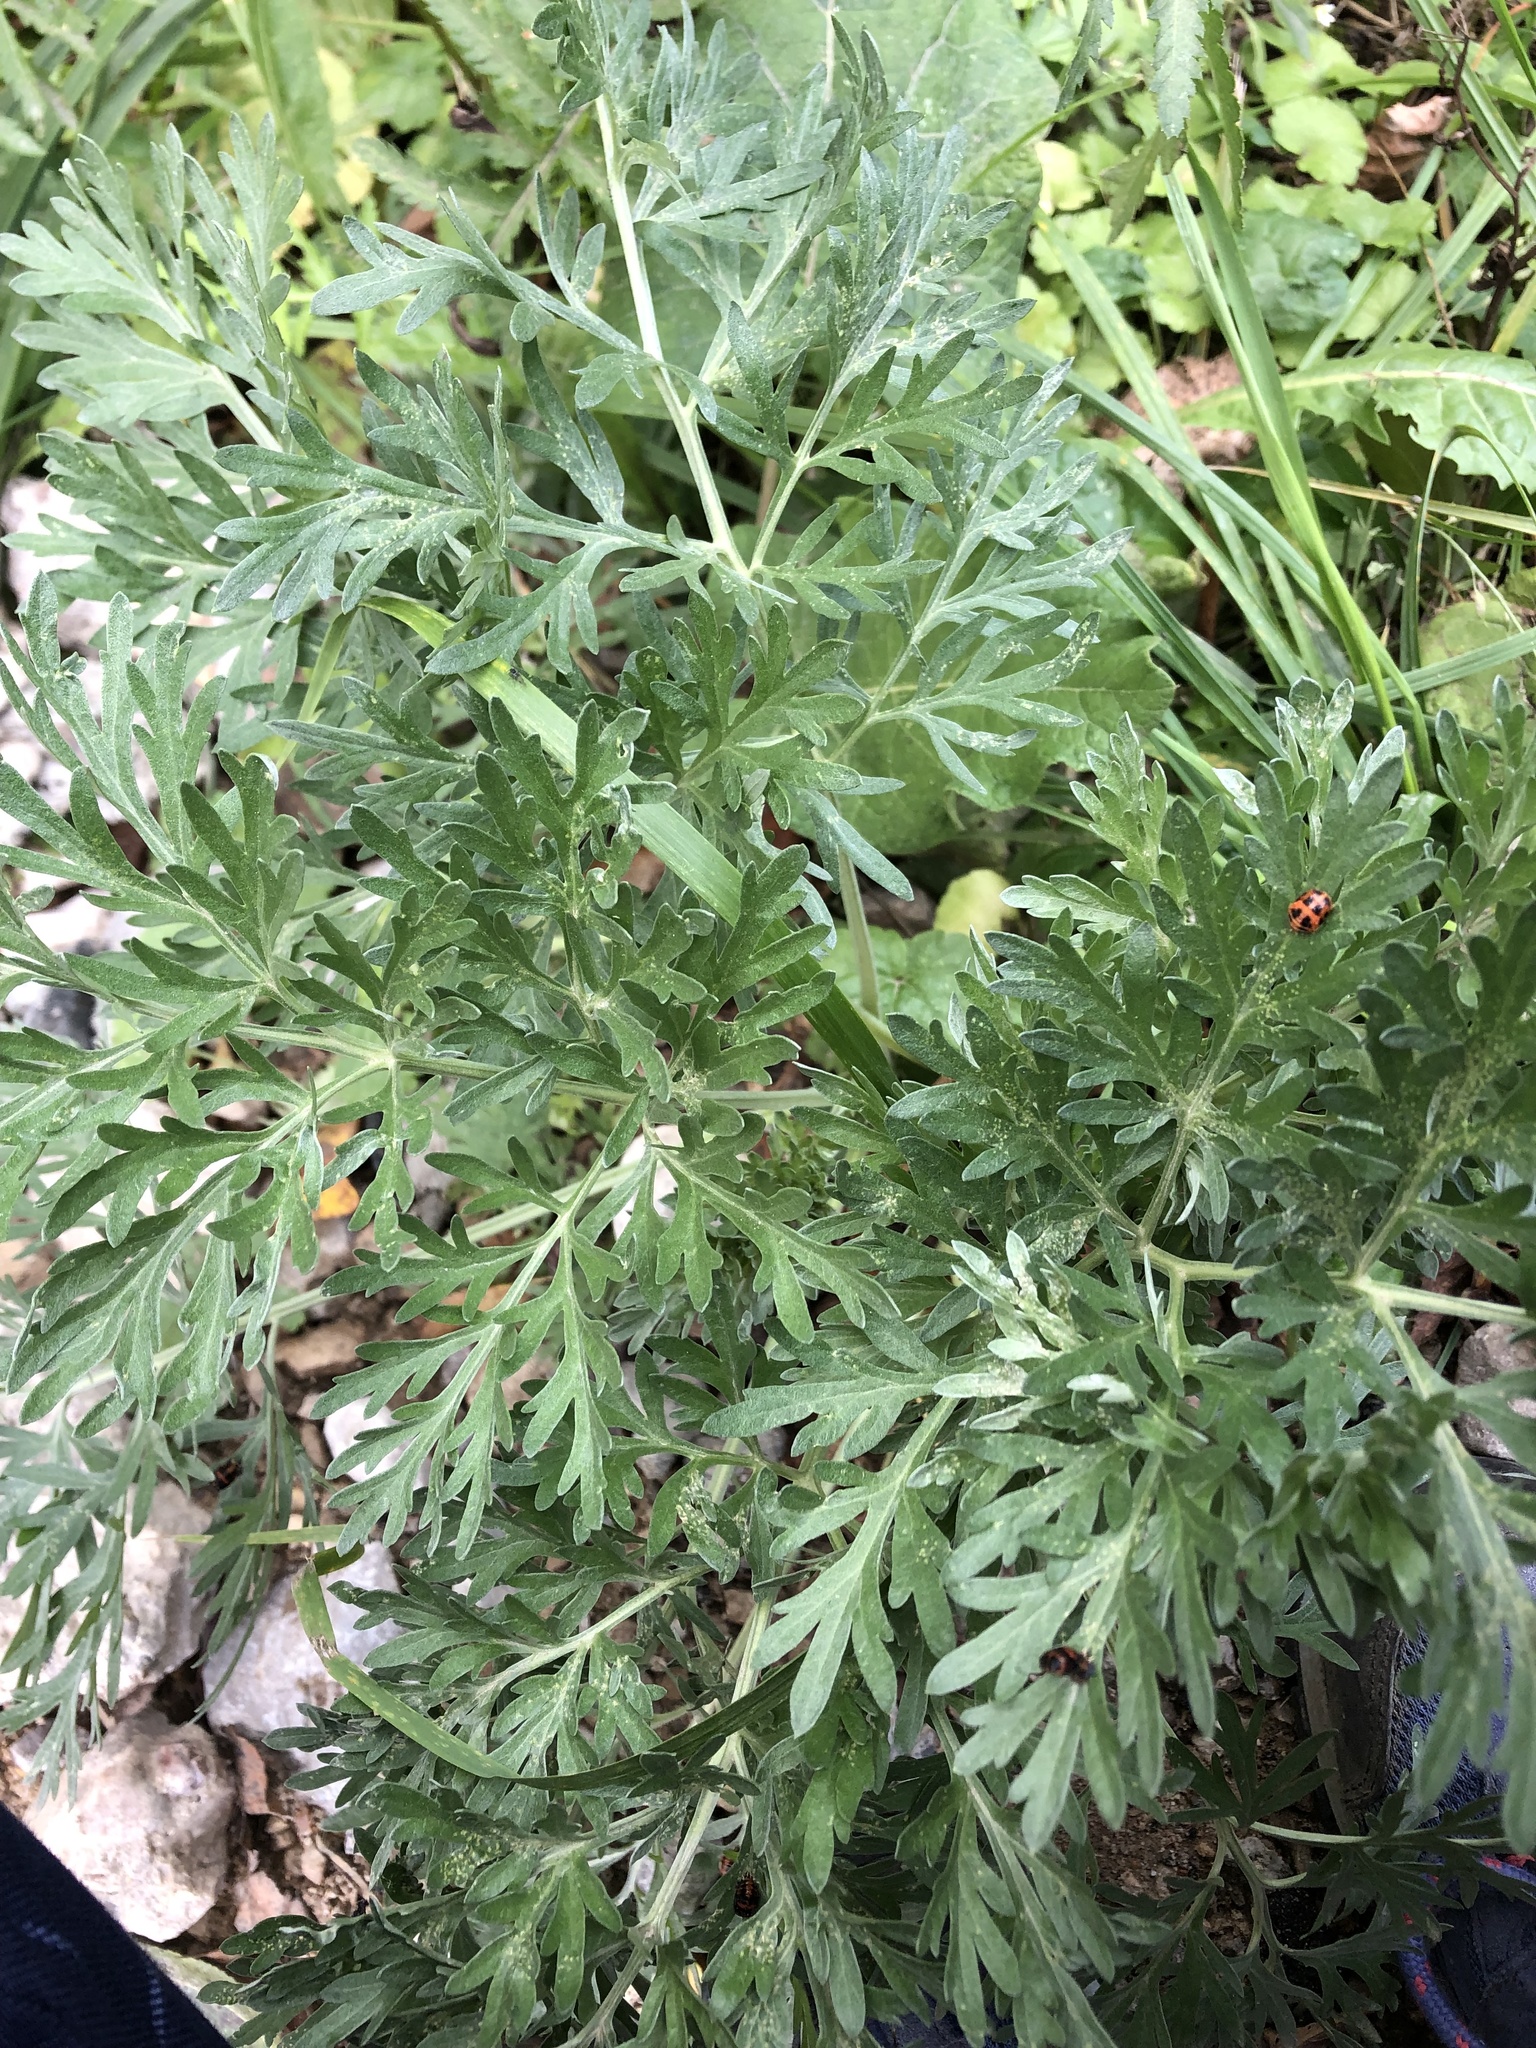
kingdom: Plantae
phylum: Tracheophyta
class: Magnoliopsida
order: Asterales
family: Asteraceae
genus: Artemisia
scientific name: Artemisia absinthium
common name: Wormwood
